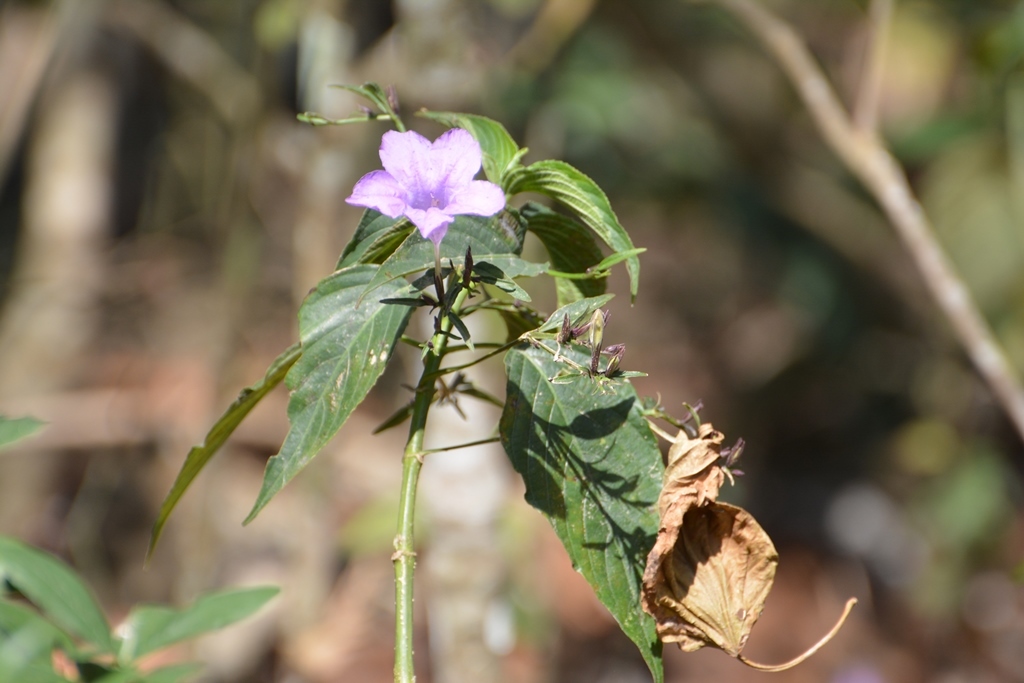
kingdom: Plantae
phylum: Tracheophyta
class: Magnoliopsida
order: Lamiales
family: Acanthaceae
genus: Ruellia
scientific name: Ruellia breedlovei
